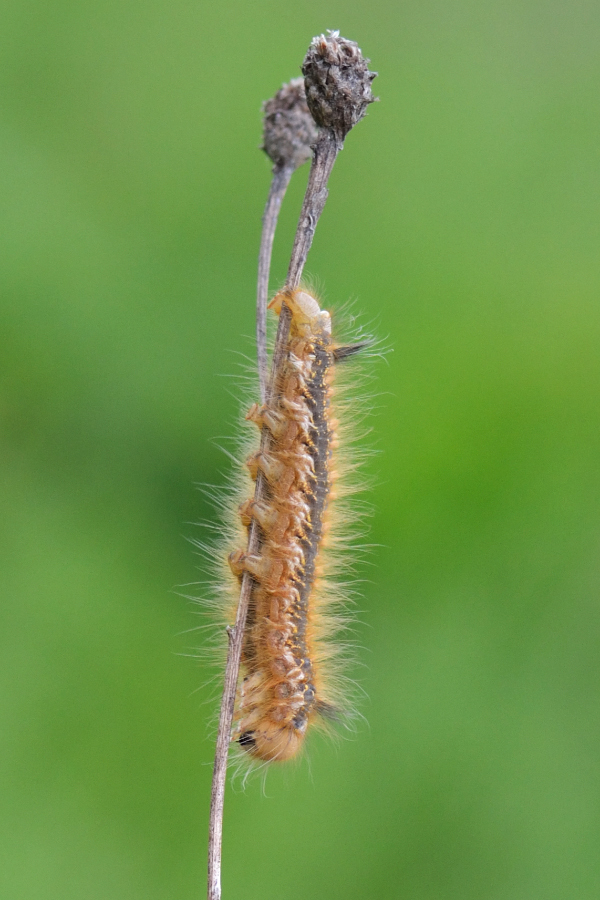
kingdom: Animalia
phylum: Arthropoda
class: Insecta
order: Lepidoptera
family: Lasiocampidae
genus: Euthrix
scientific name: Euthrix potatoria
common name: Drinker
